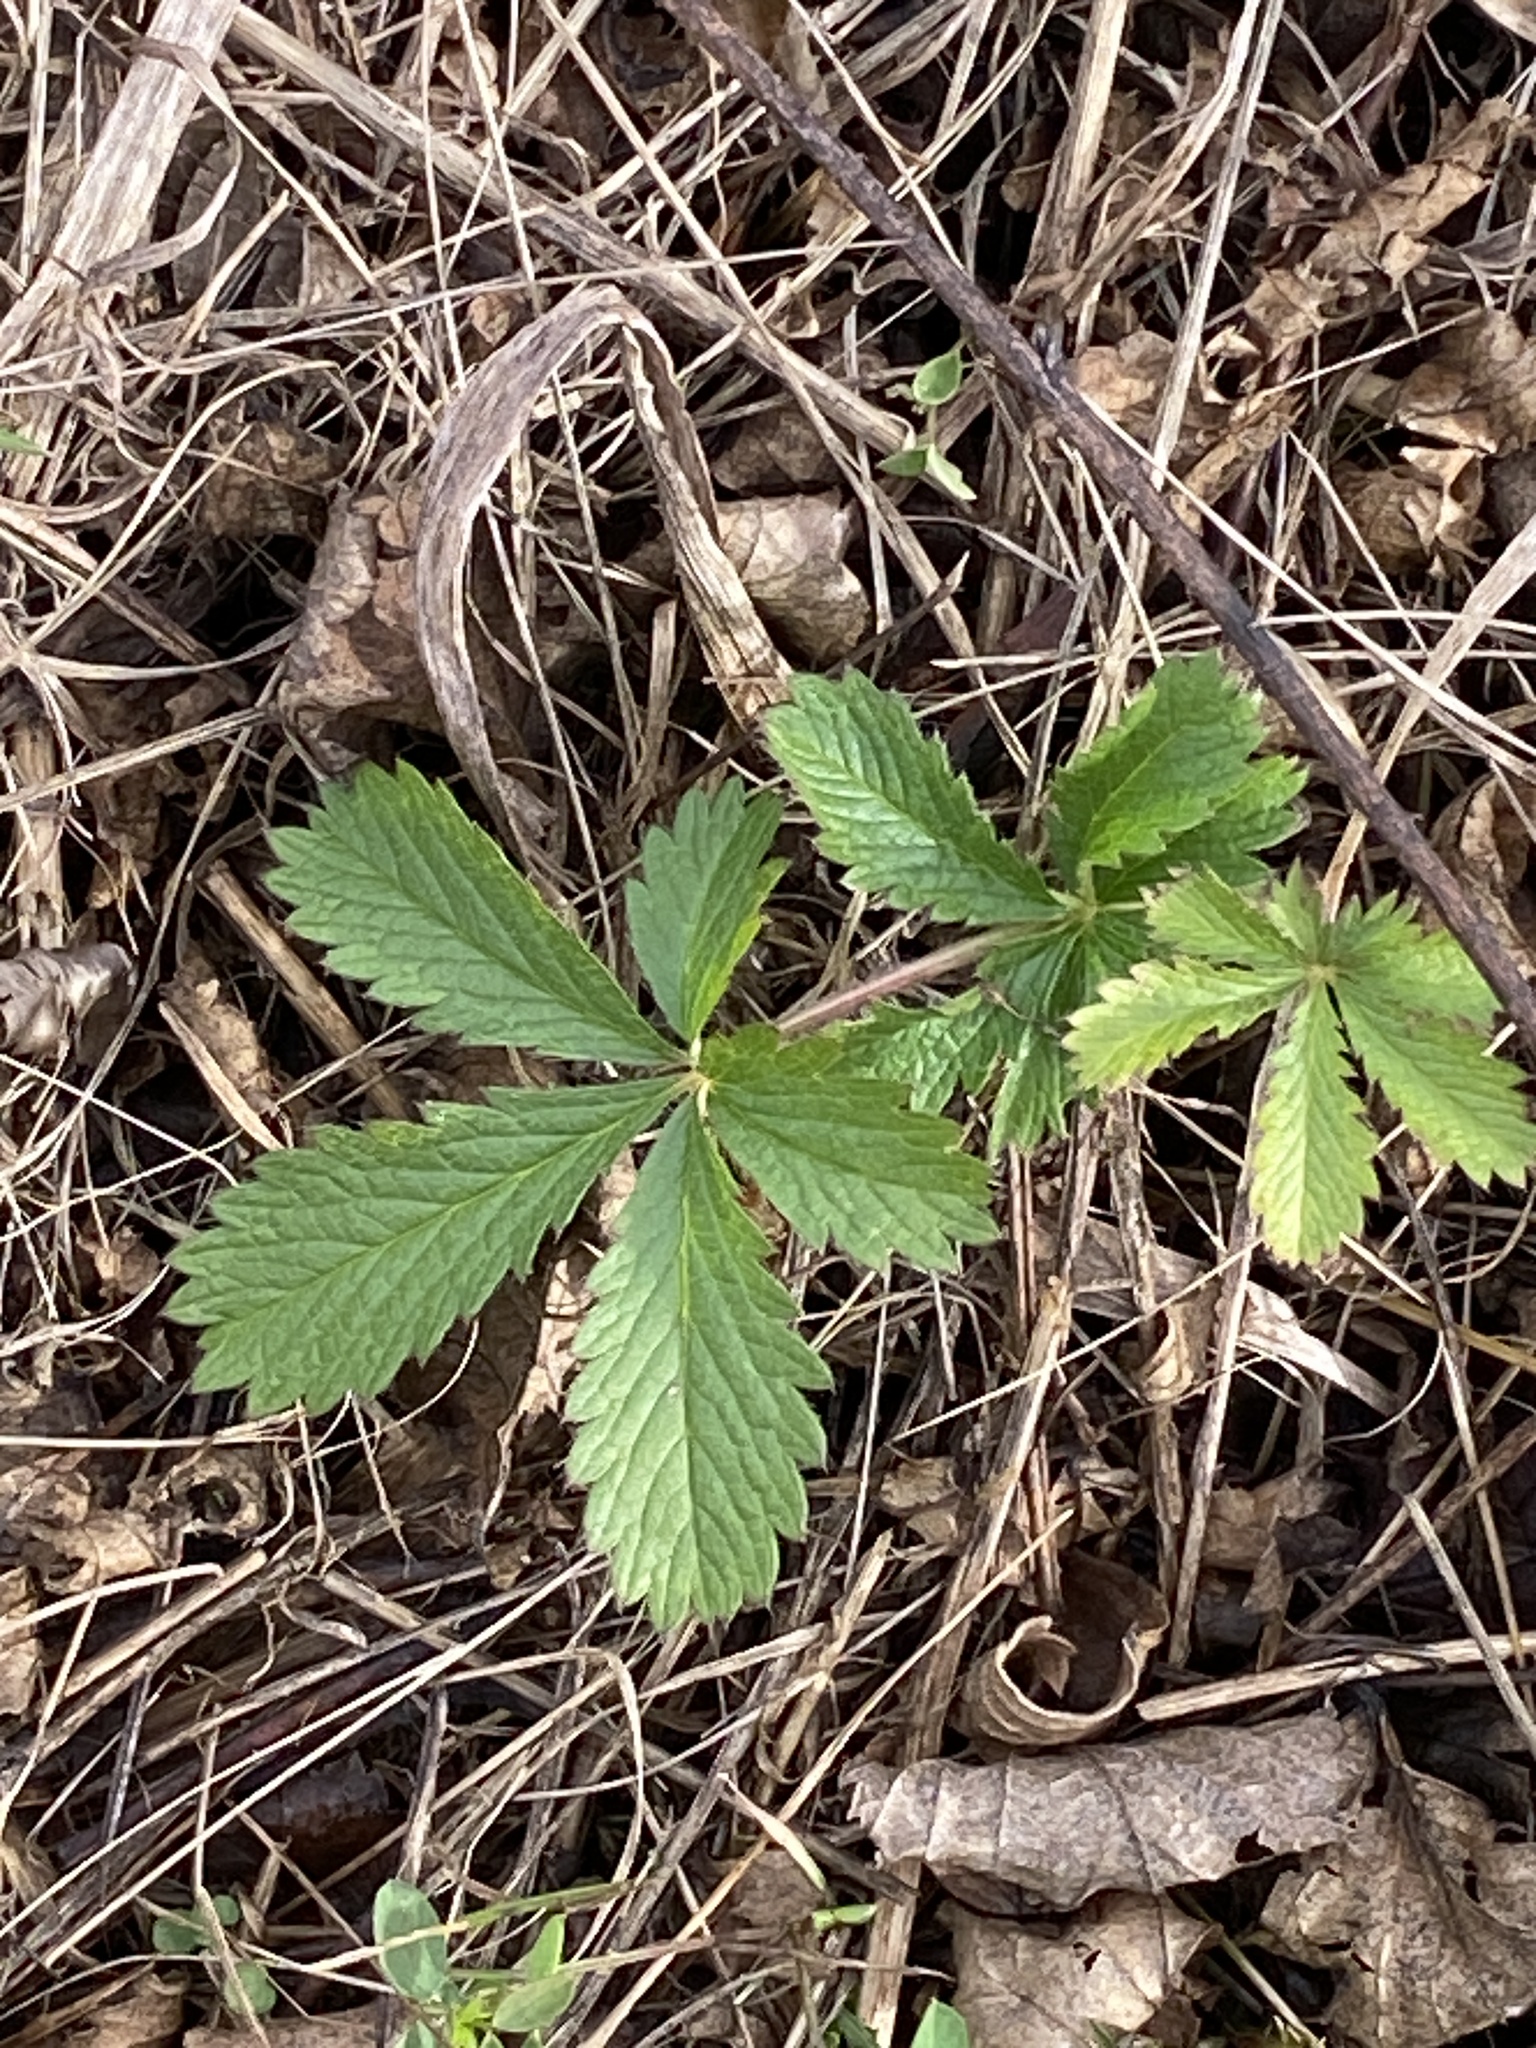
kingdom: Plantae
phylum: Tracheophyta
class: Magnoliopsida
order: Rosales
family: Rosaceae
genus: Potentilla
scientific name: Potentilla recta
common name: Sulphur cinquefoil
